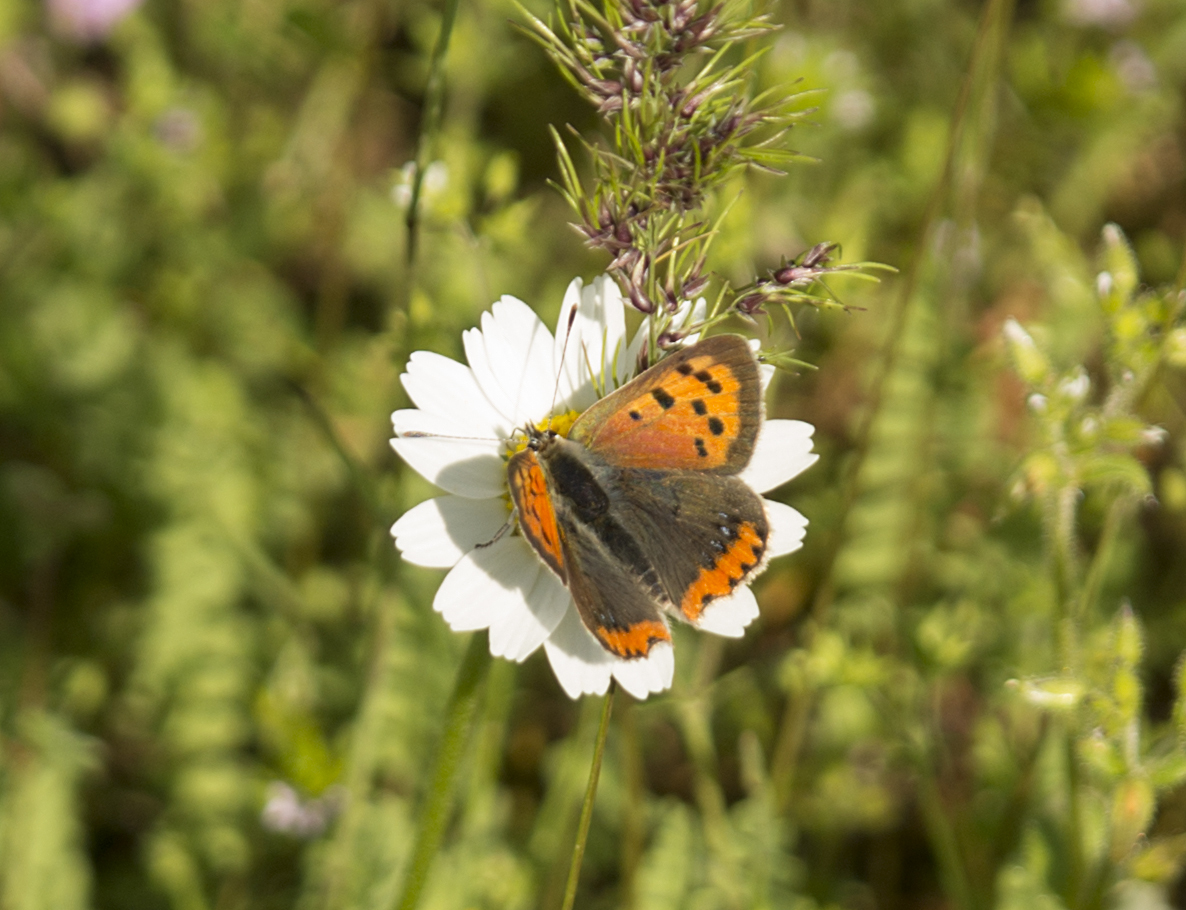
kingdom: Animalia
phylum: Arthropoda
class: Insecta
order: Lepidoptera
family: Lycaenidae
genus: Lycaena
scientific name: Lycaena phlaeas
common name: Small copper
